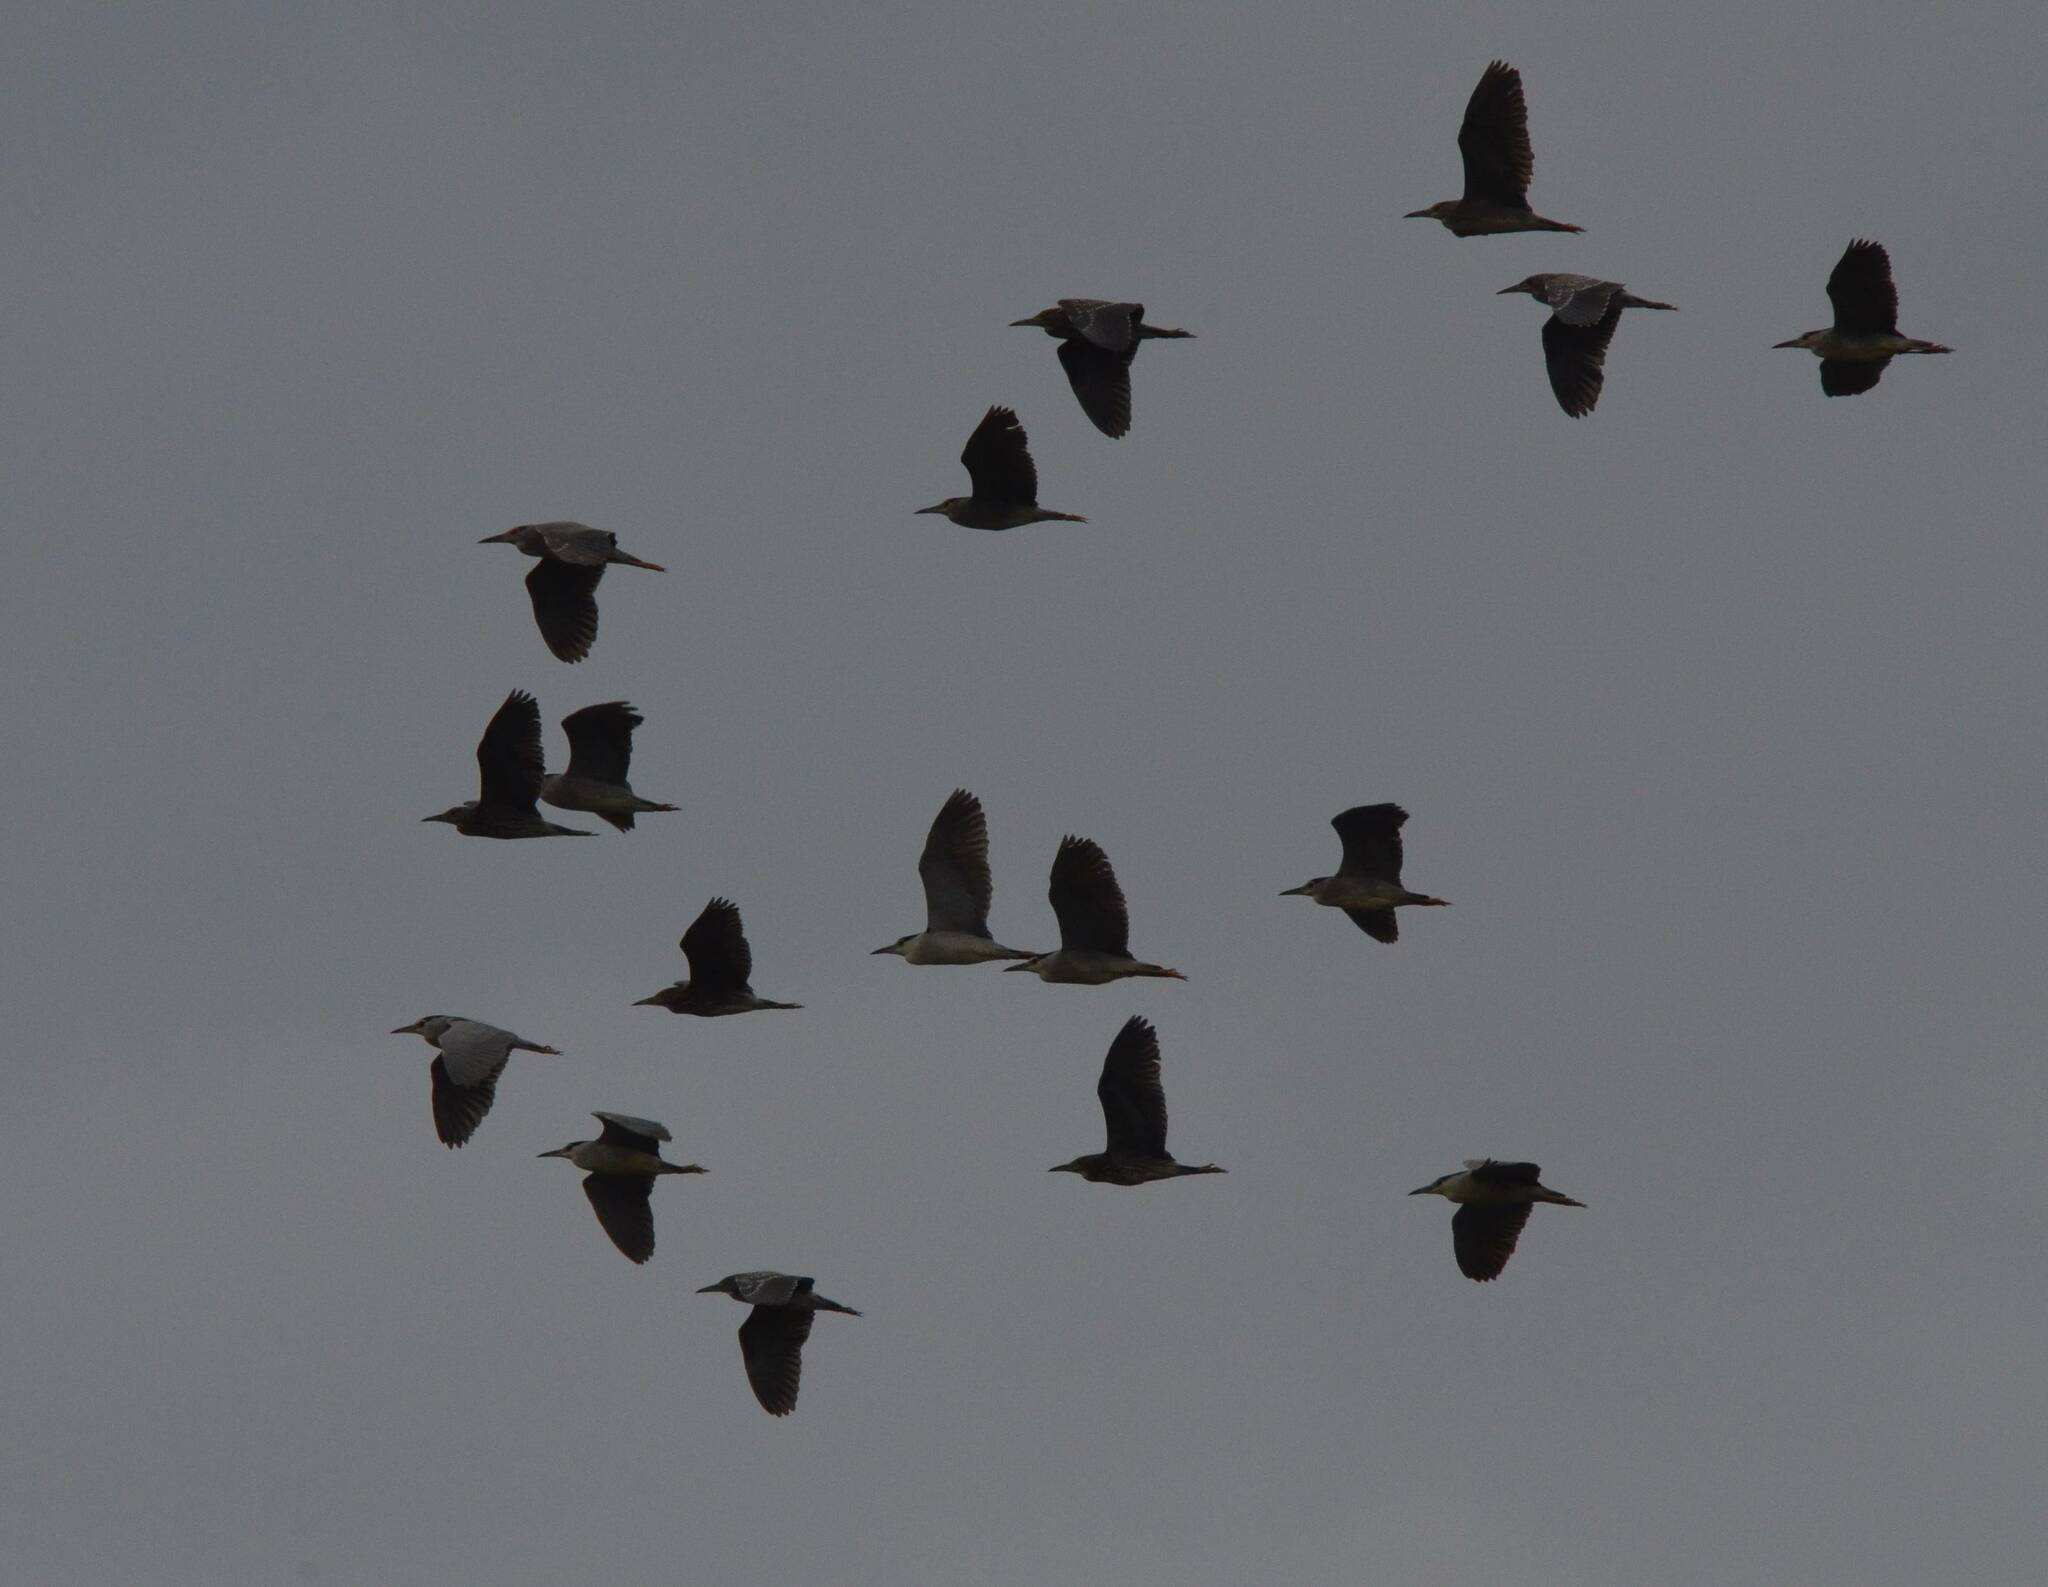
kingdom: Animalia
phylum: Chordata
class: Aves
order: Pelecaniformes
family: Ardeidae
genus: Nycticorax
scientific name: Nycticorax nycticorax
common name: Black-crowned night heron
